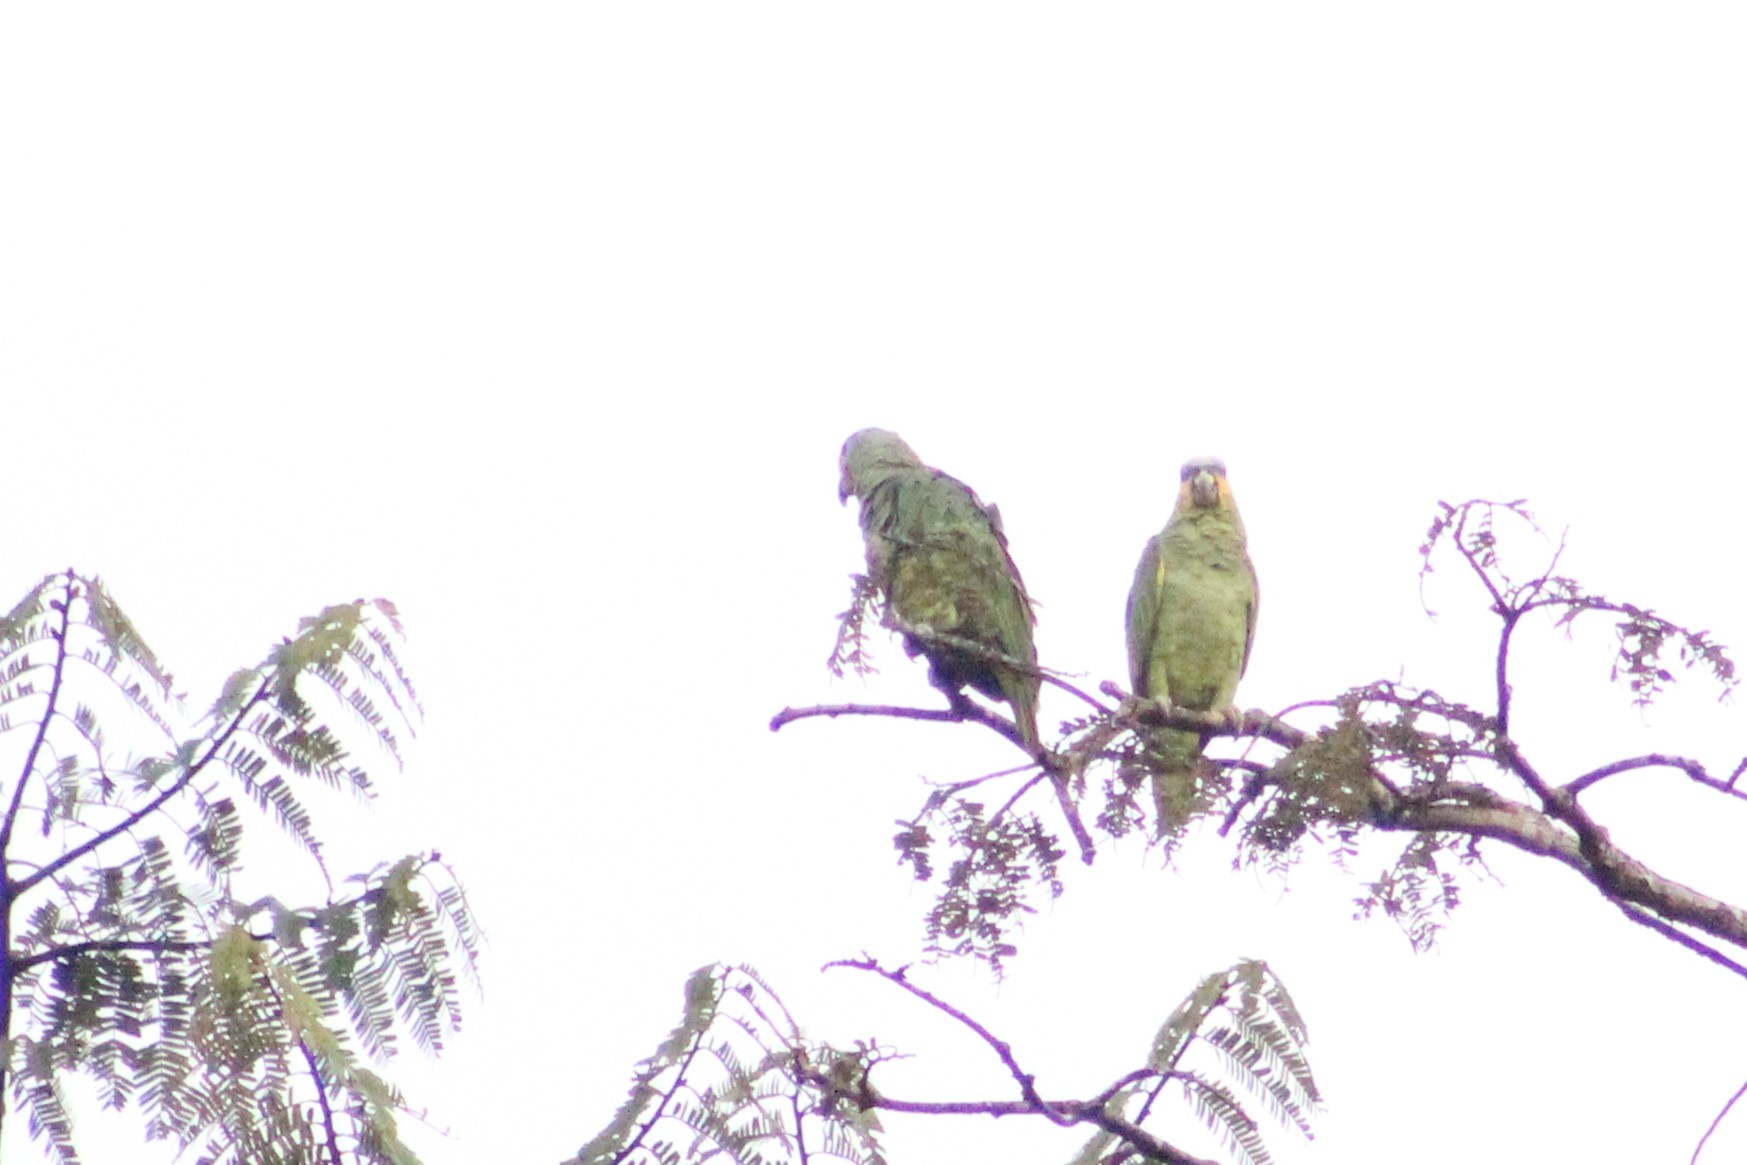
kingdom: Animalia
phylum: Chordata
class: Aves
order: Psittaciformes
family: Psittacidae
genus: Amazona
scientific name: Amazona amazonica
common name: Orange-winged amazon
